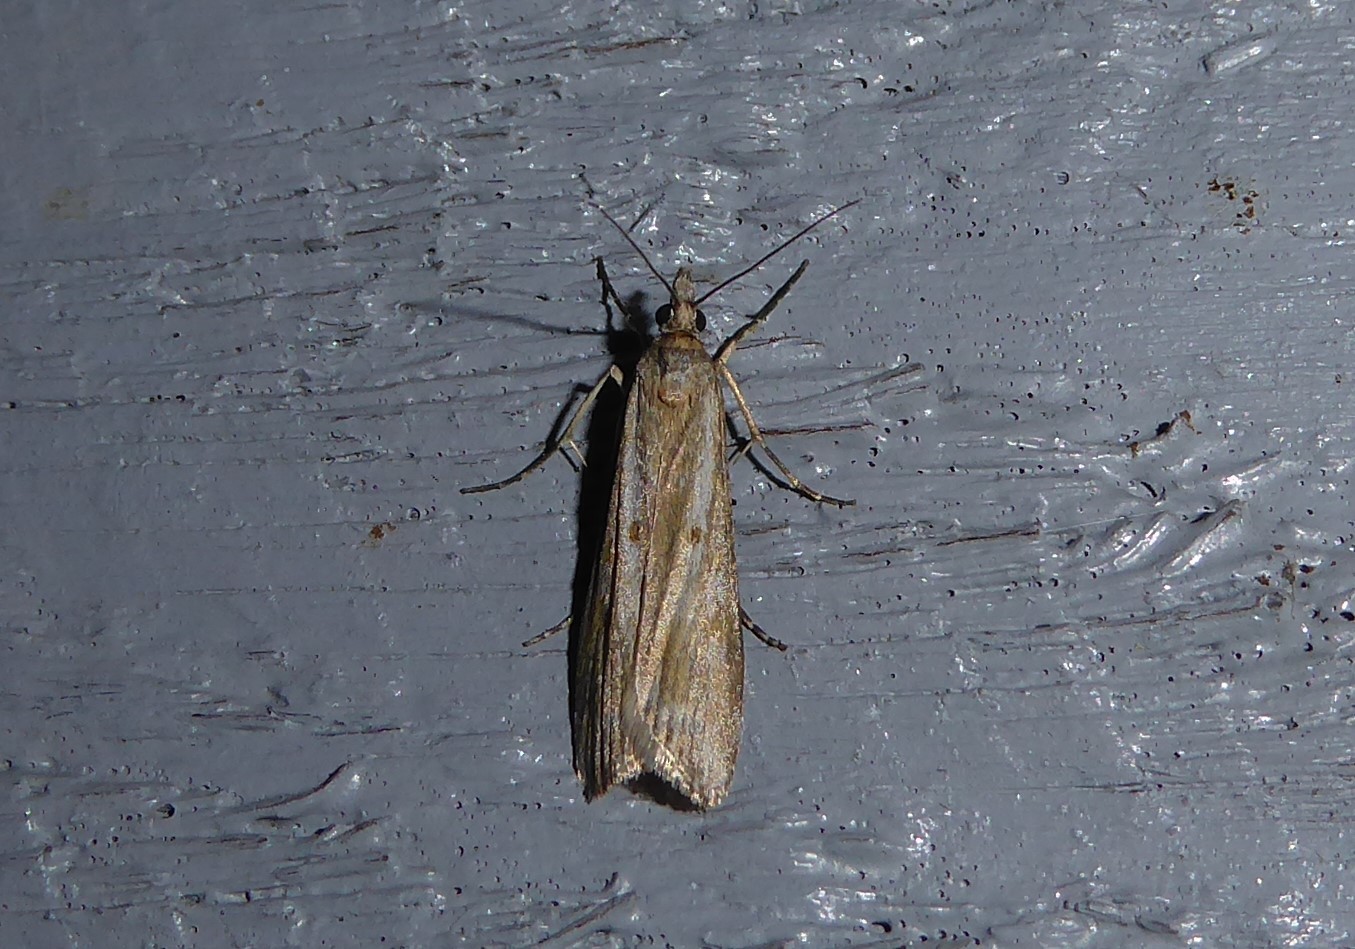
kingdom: Animalia
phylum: Arthropoda
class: Insecta
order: Lepidoptera
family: Crambidae
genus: Eudonia
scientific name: Eudonia leptalea
